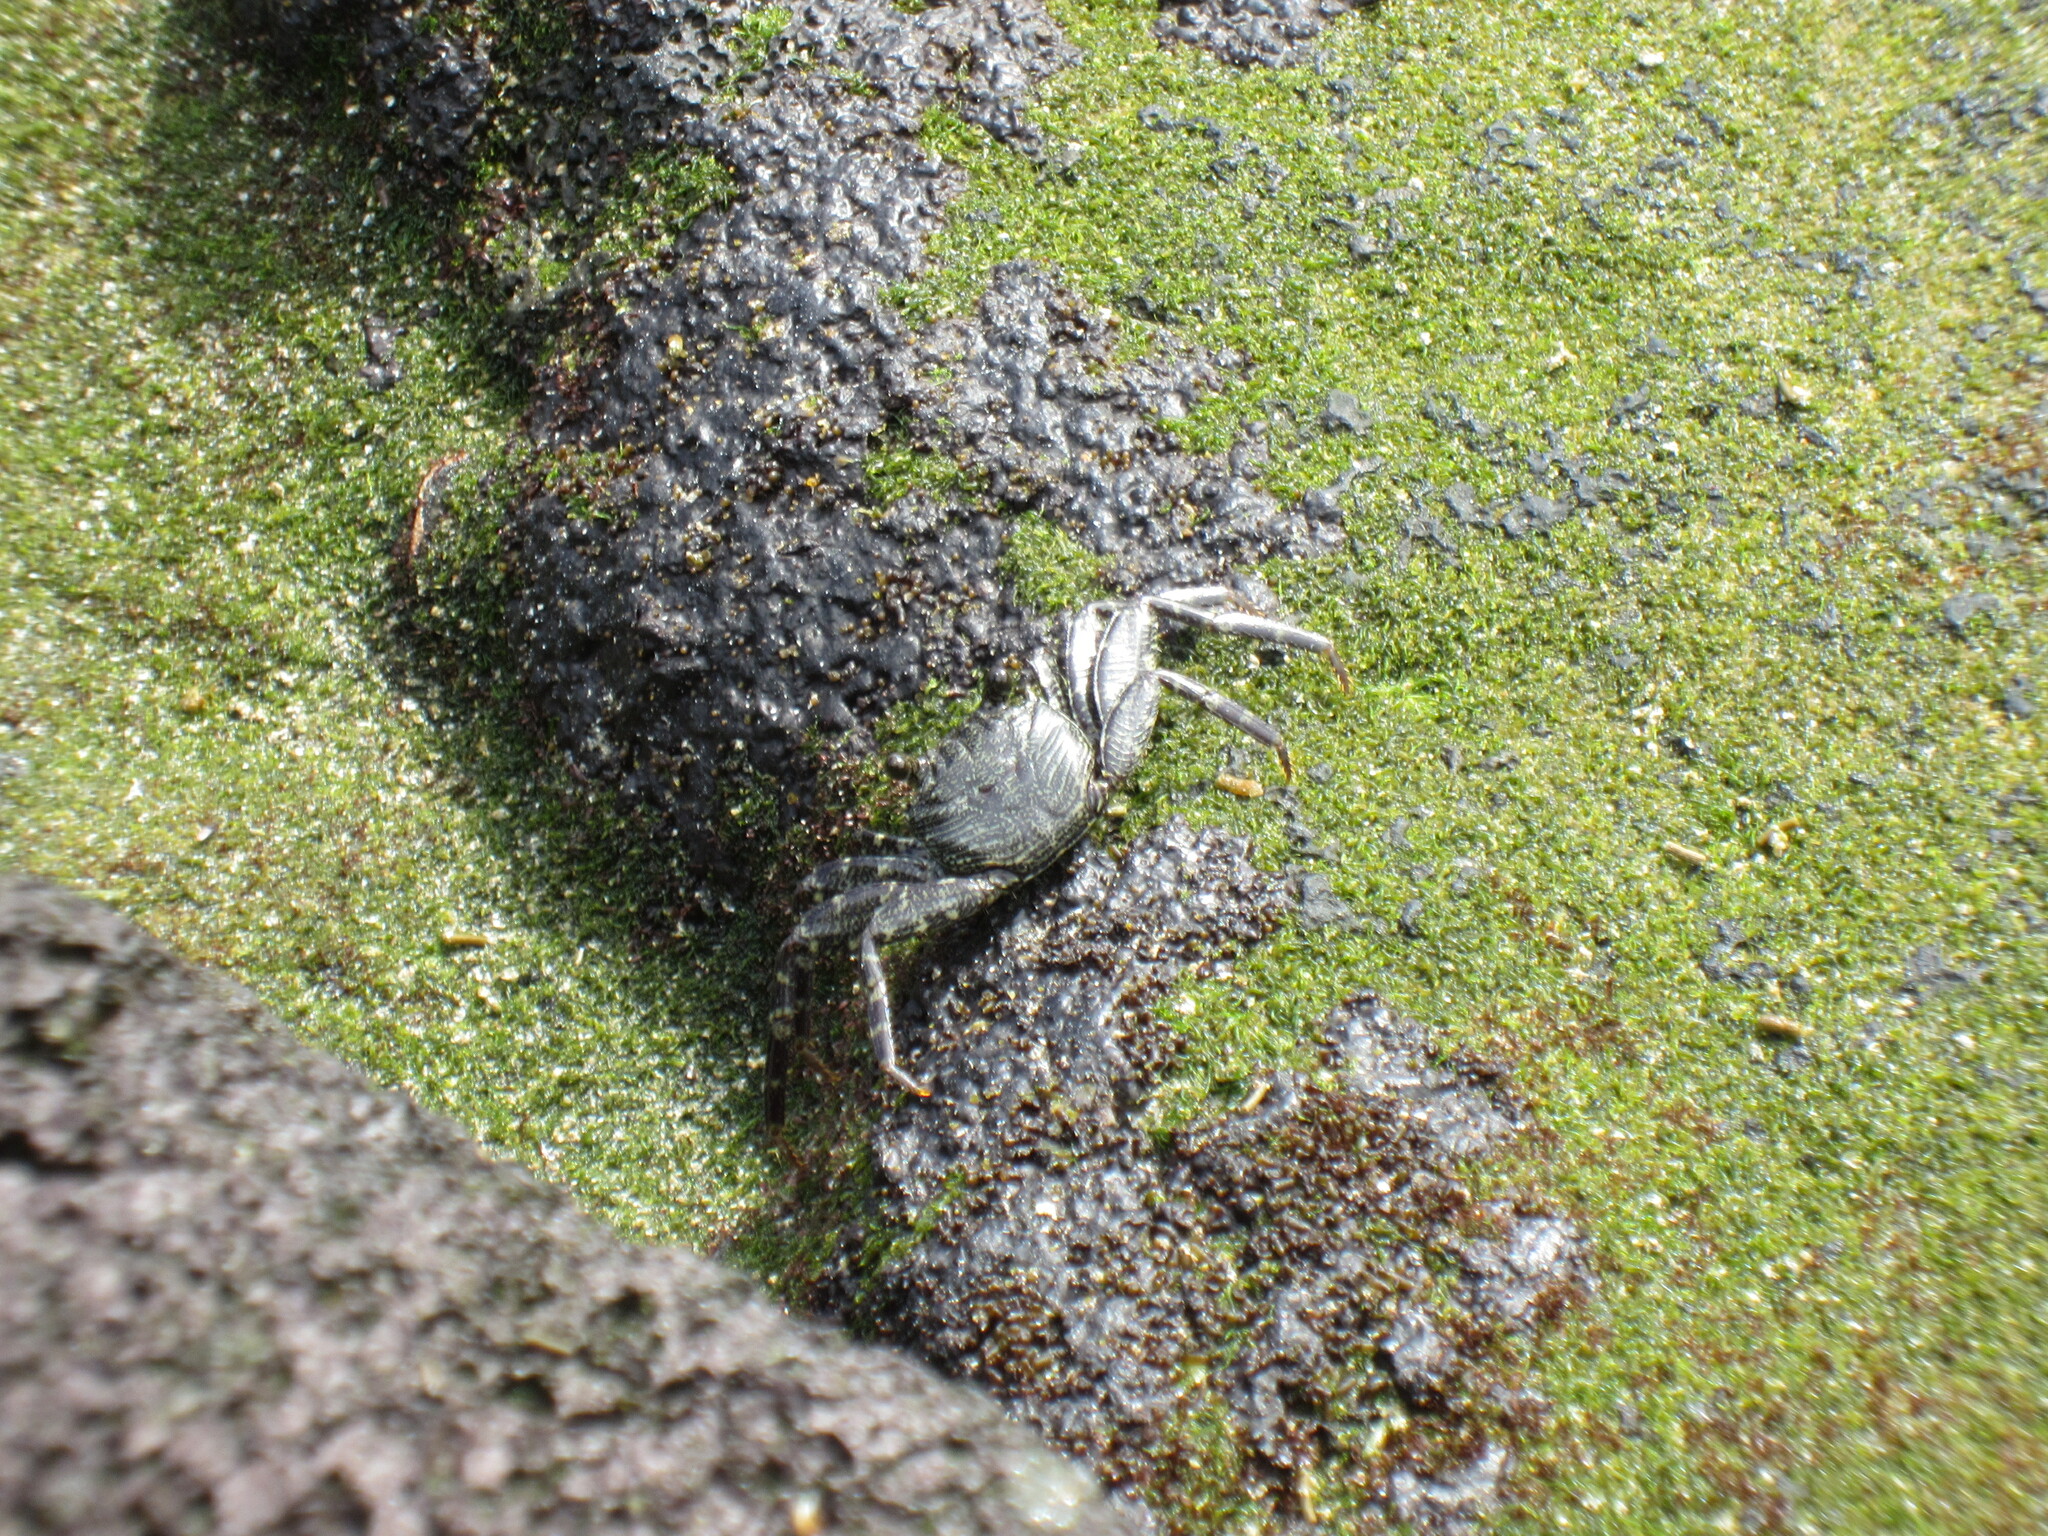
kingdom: Animalia
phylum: Arthropoda
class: Malacostraca
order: Decapoda
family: Grapsidae
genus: Grapsus
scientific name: Grapsus tenuicrustatus
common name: Natal lightfoot crab
